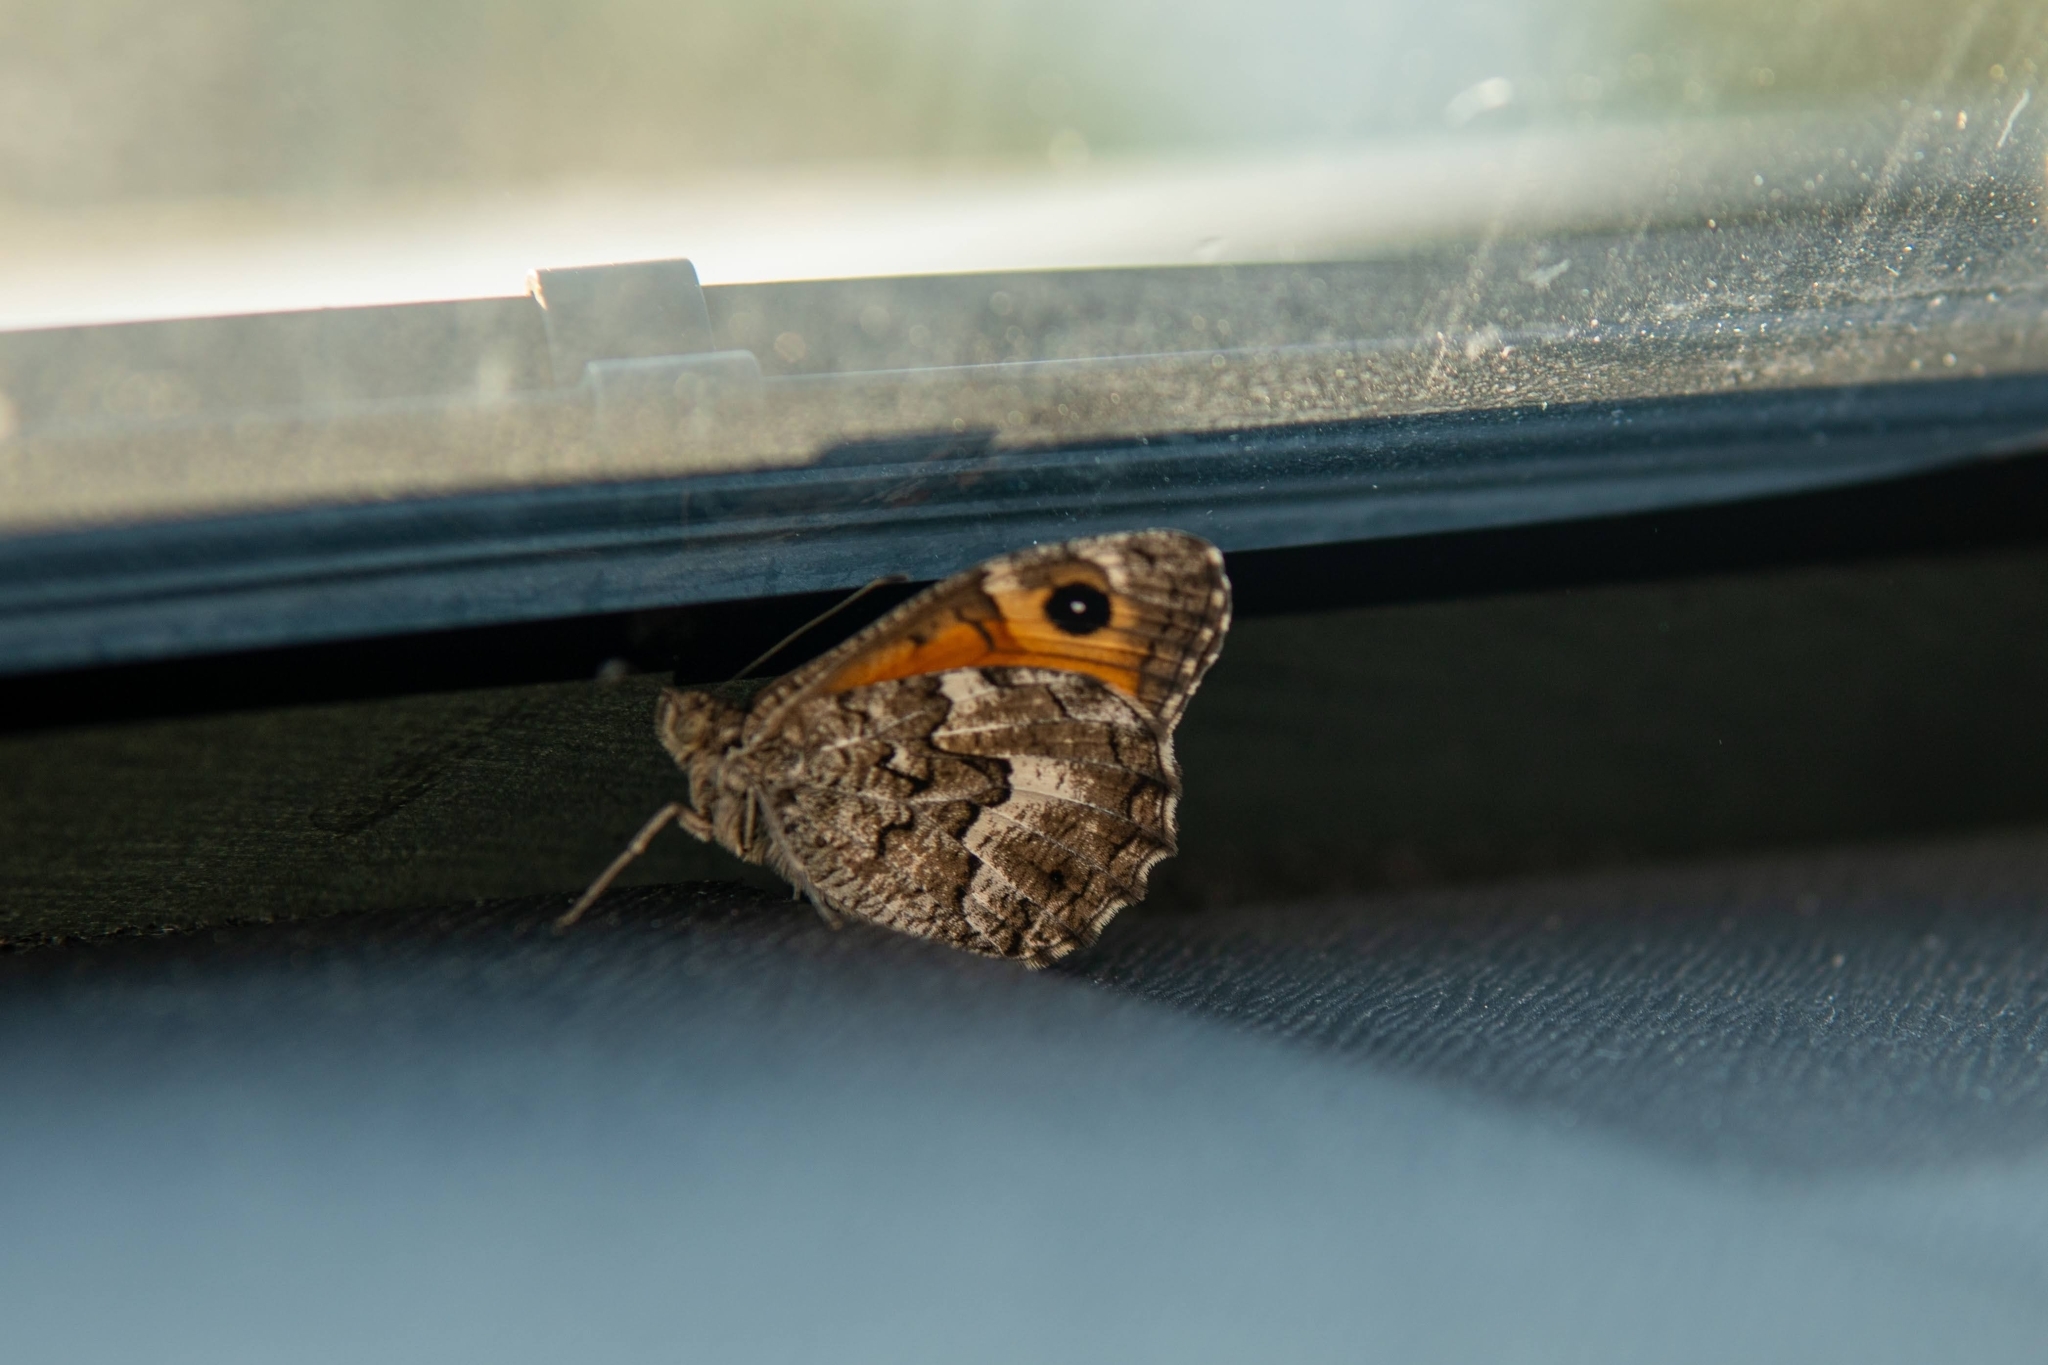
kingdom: Animalia
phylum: Arthropoda
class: Insecta
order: Lepidoptera
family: Nymphalidae
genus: Hipparchia
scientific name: Hipparchia algirica
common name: Mountain grayling
